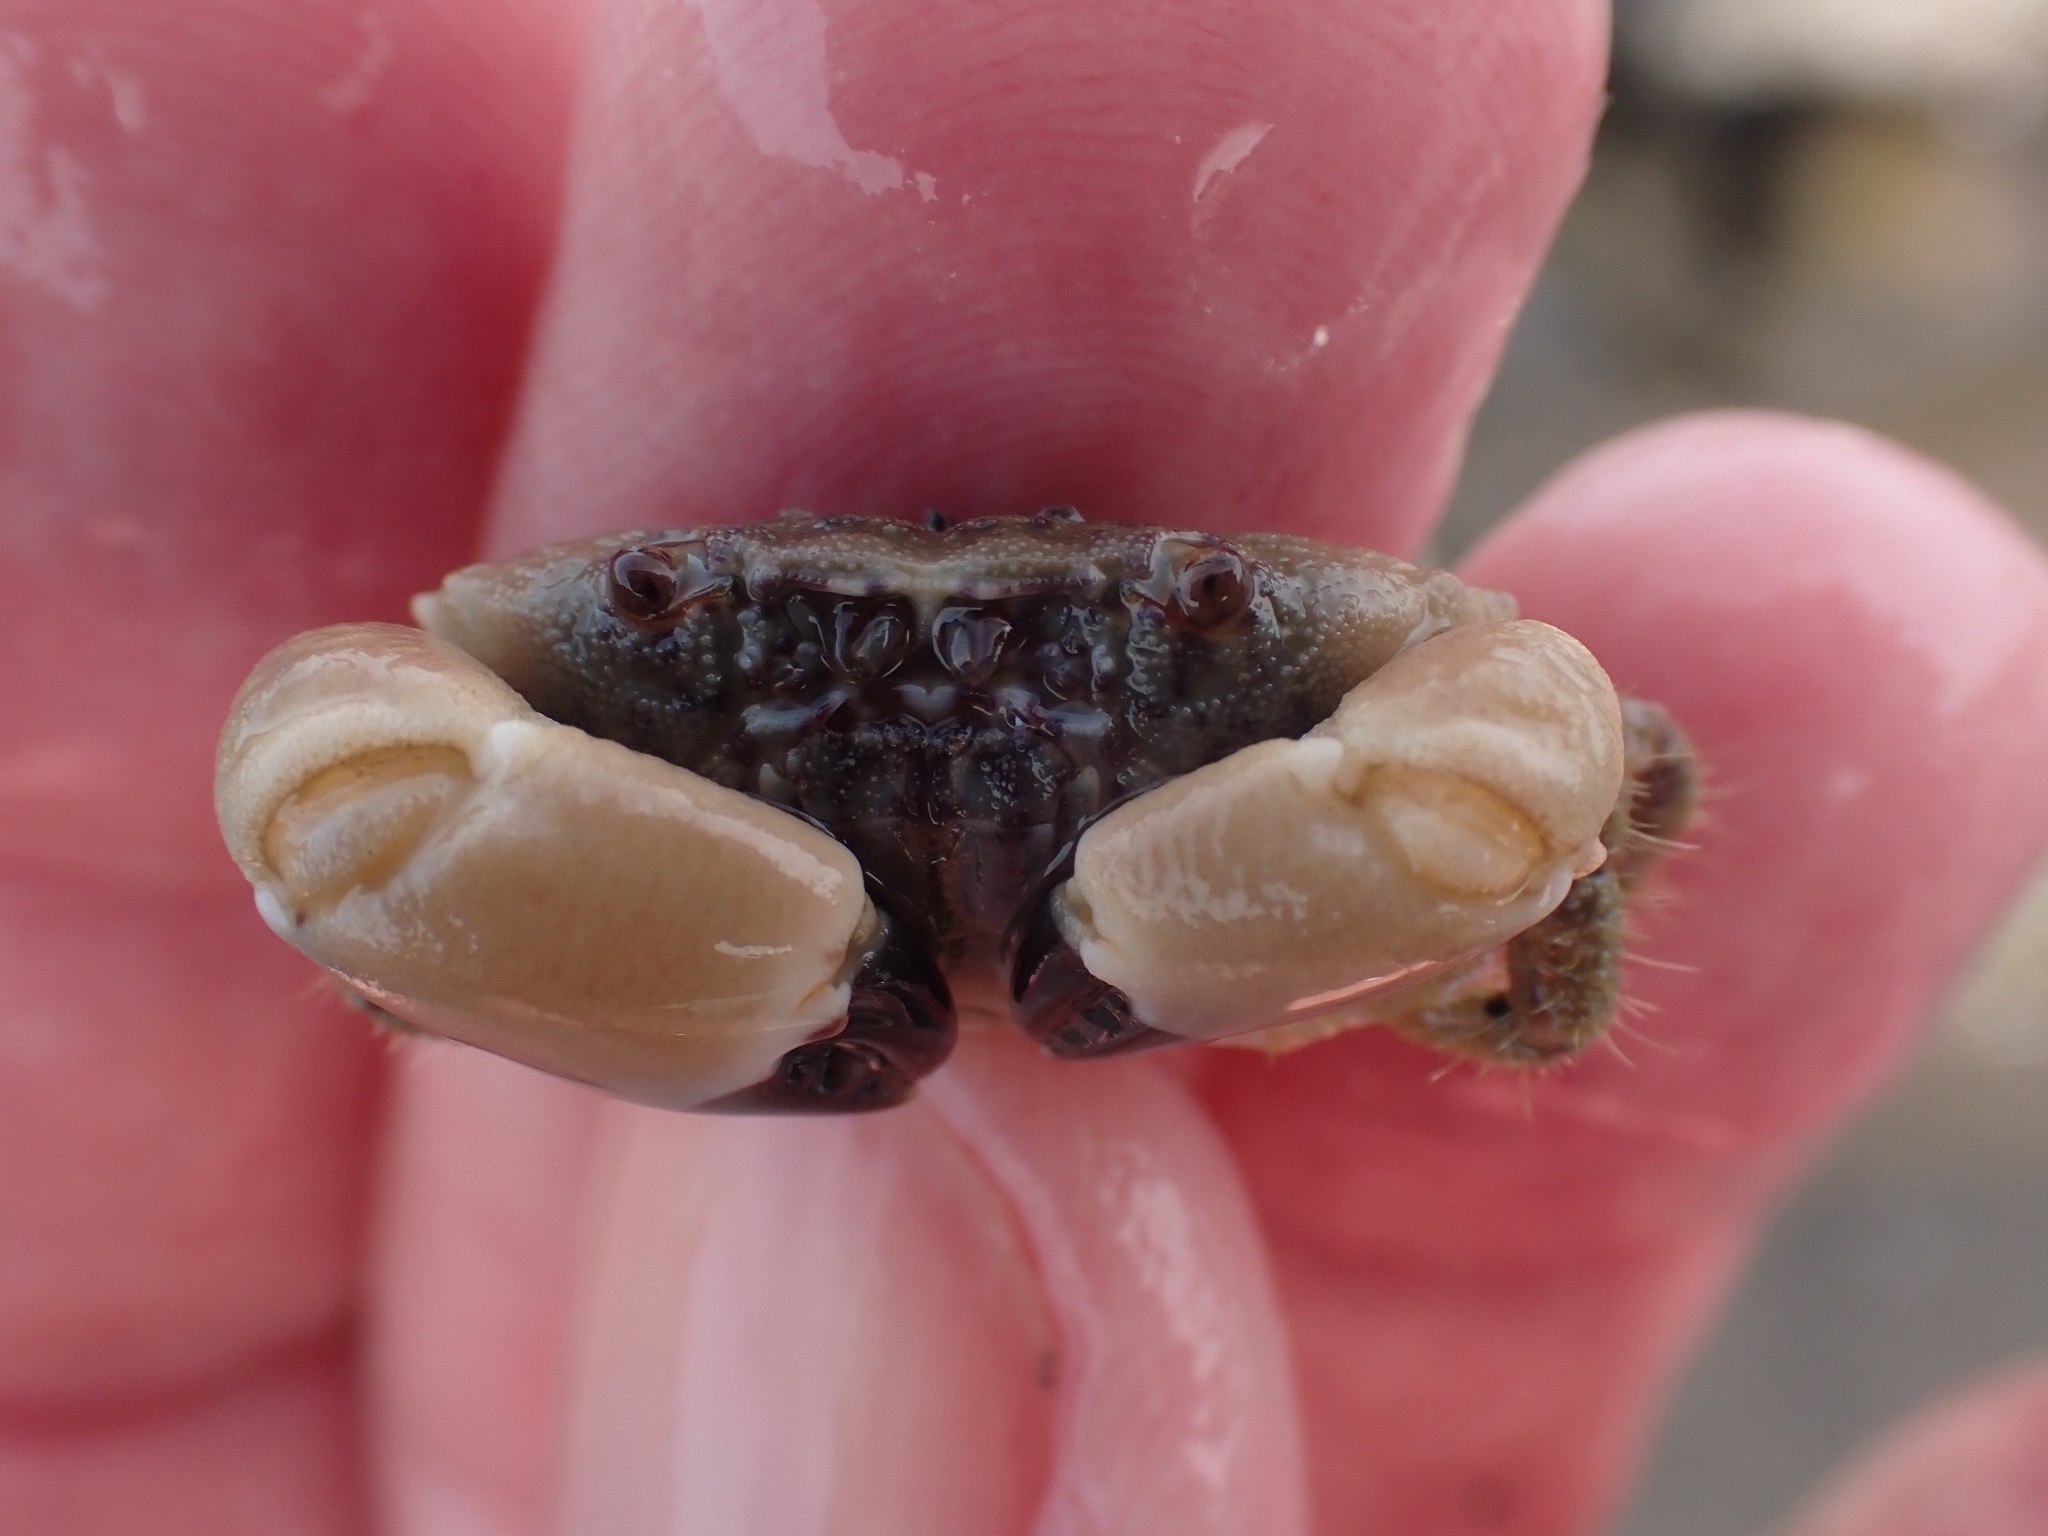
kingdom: Animalia
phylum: Arthropoda
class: Malacostraca
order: Decapoda
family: Oziidae
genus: Ozius
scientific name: Ozius deplanatus
